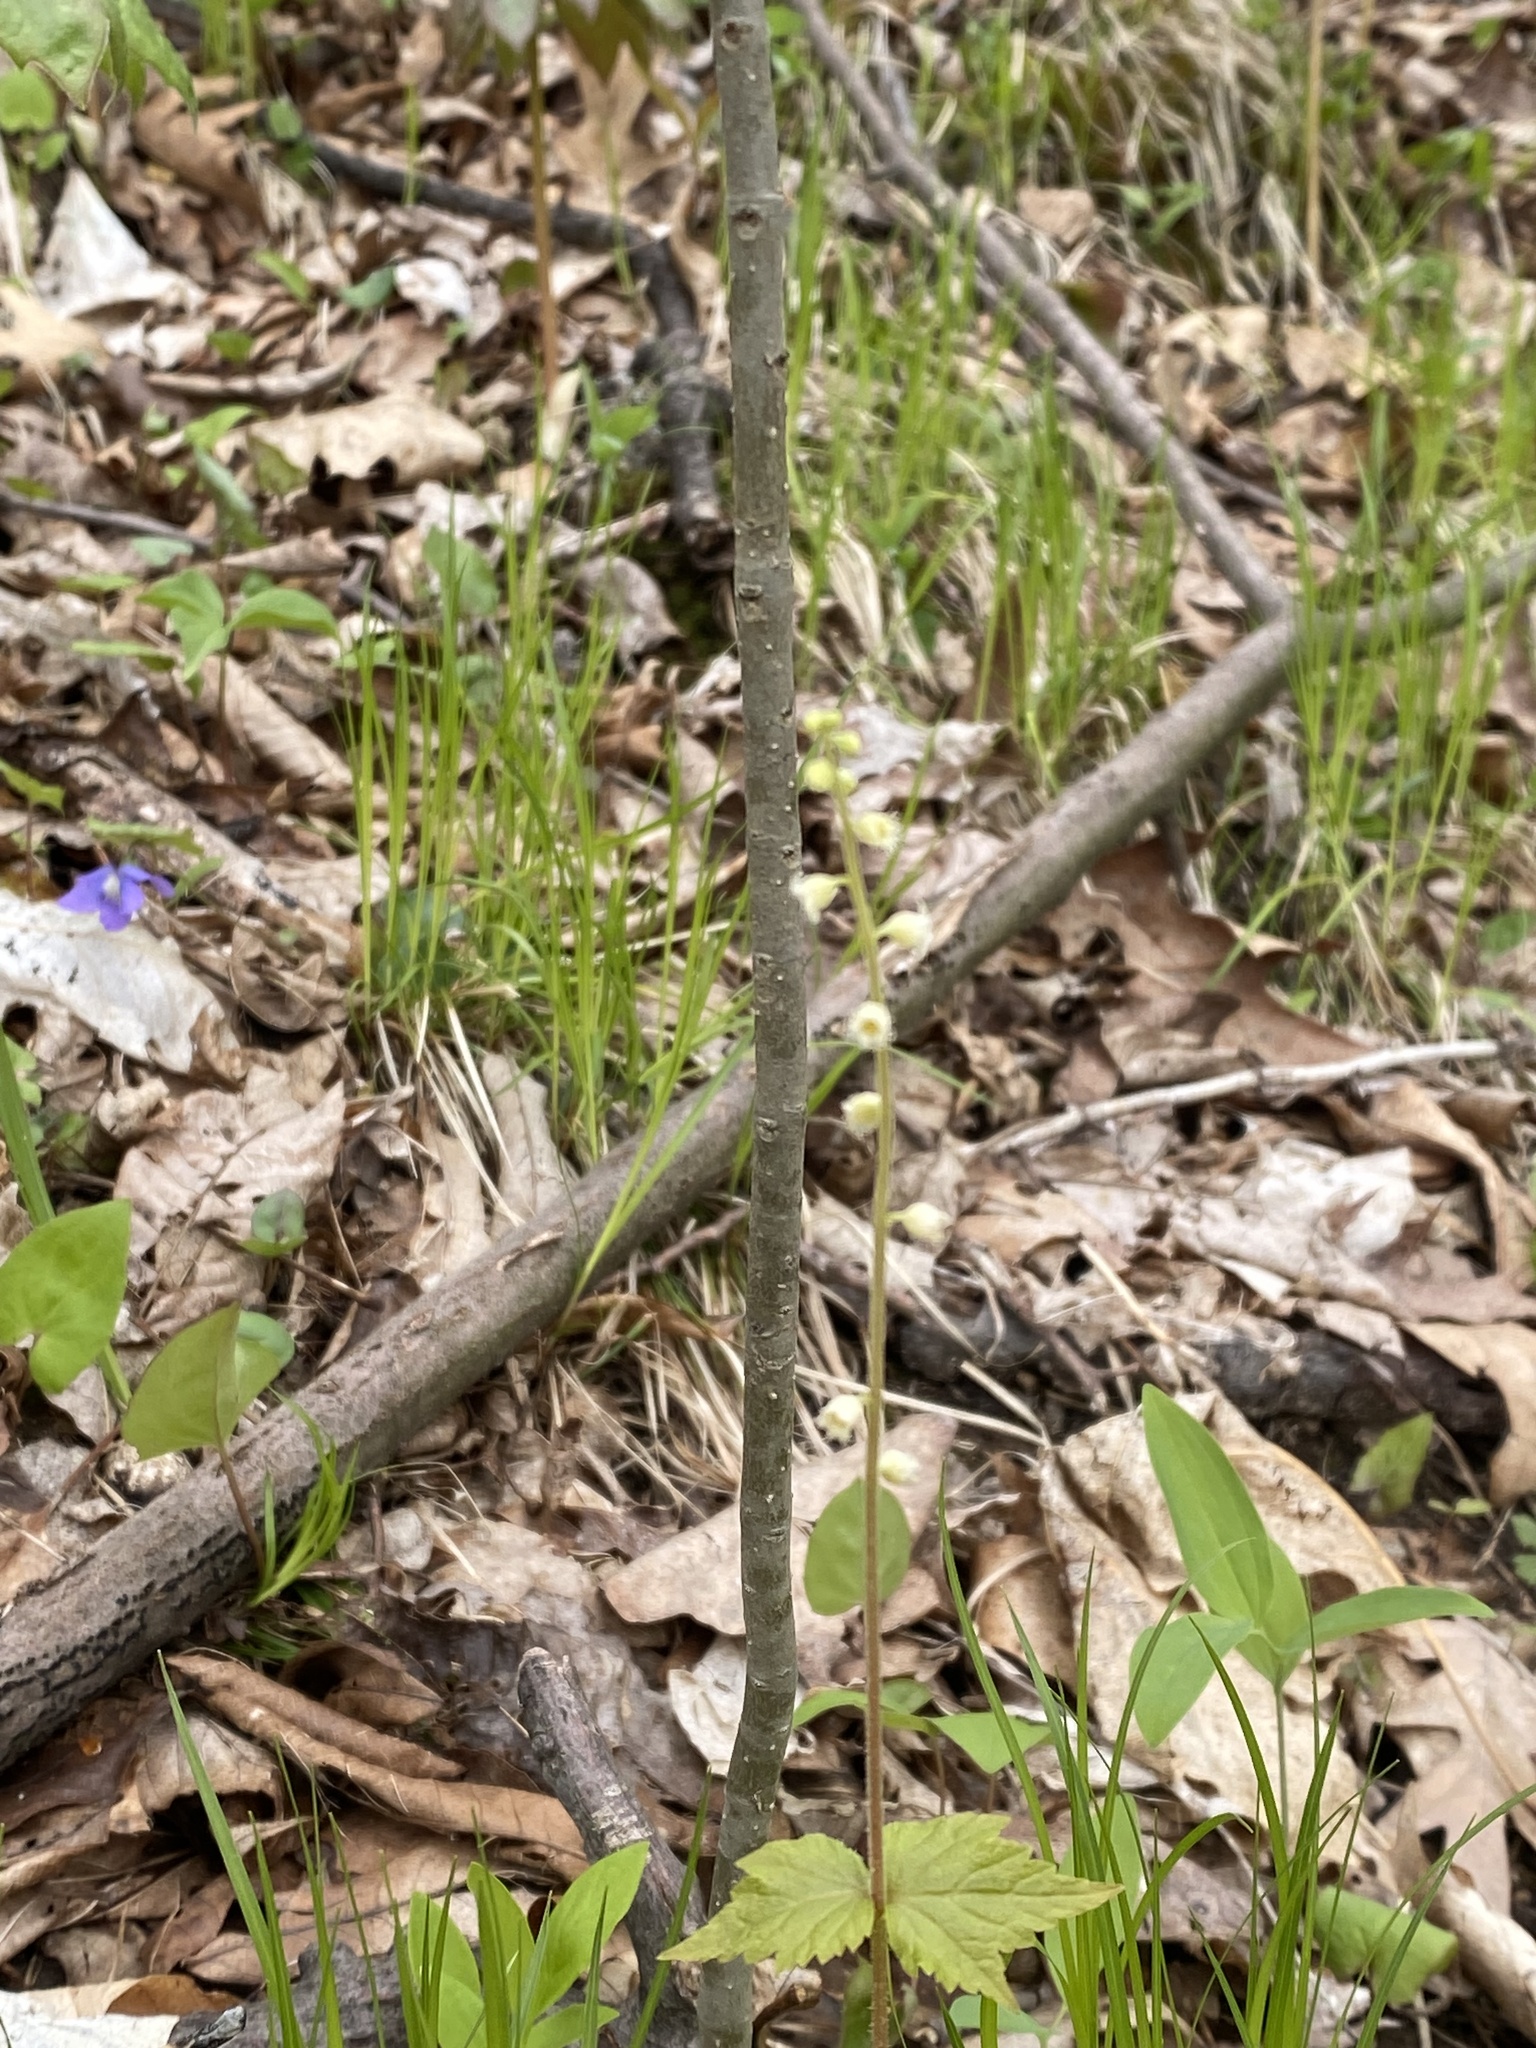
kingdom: Plantae
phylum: Tracheophyta
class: Magnoliopsida
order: Saxifragales
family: Saxifragaceae
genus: Mitella
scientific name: Mitella diphylla
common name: Coolwort
